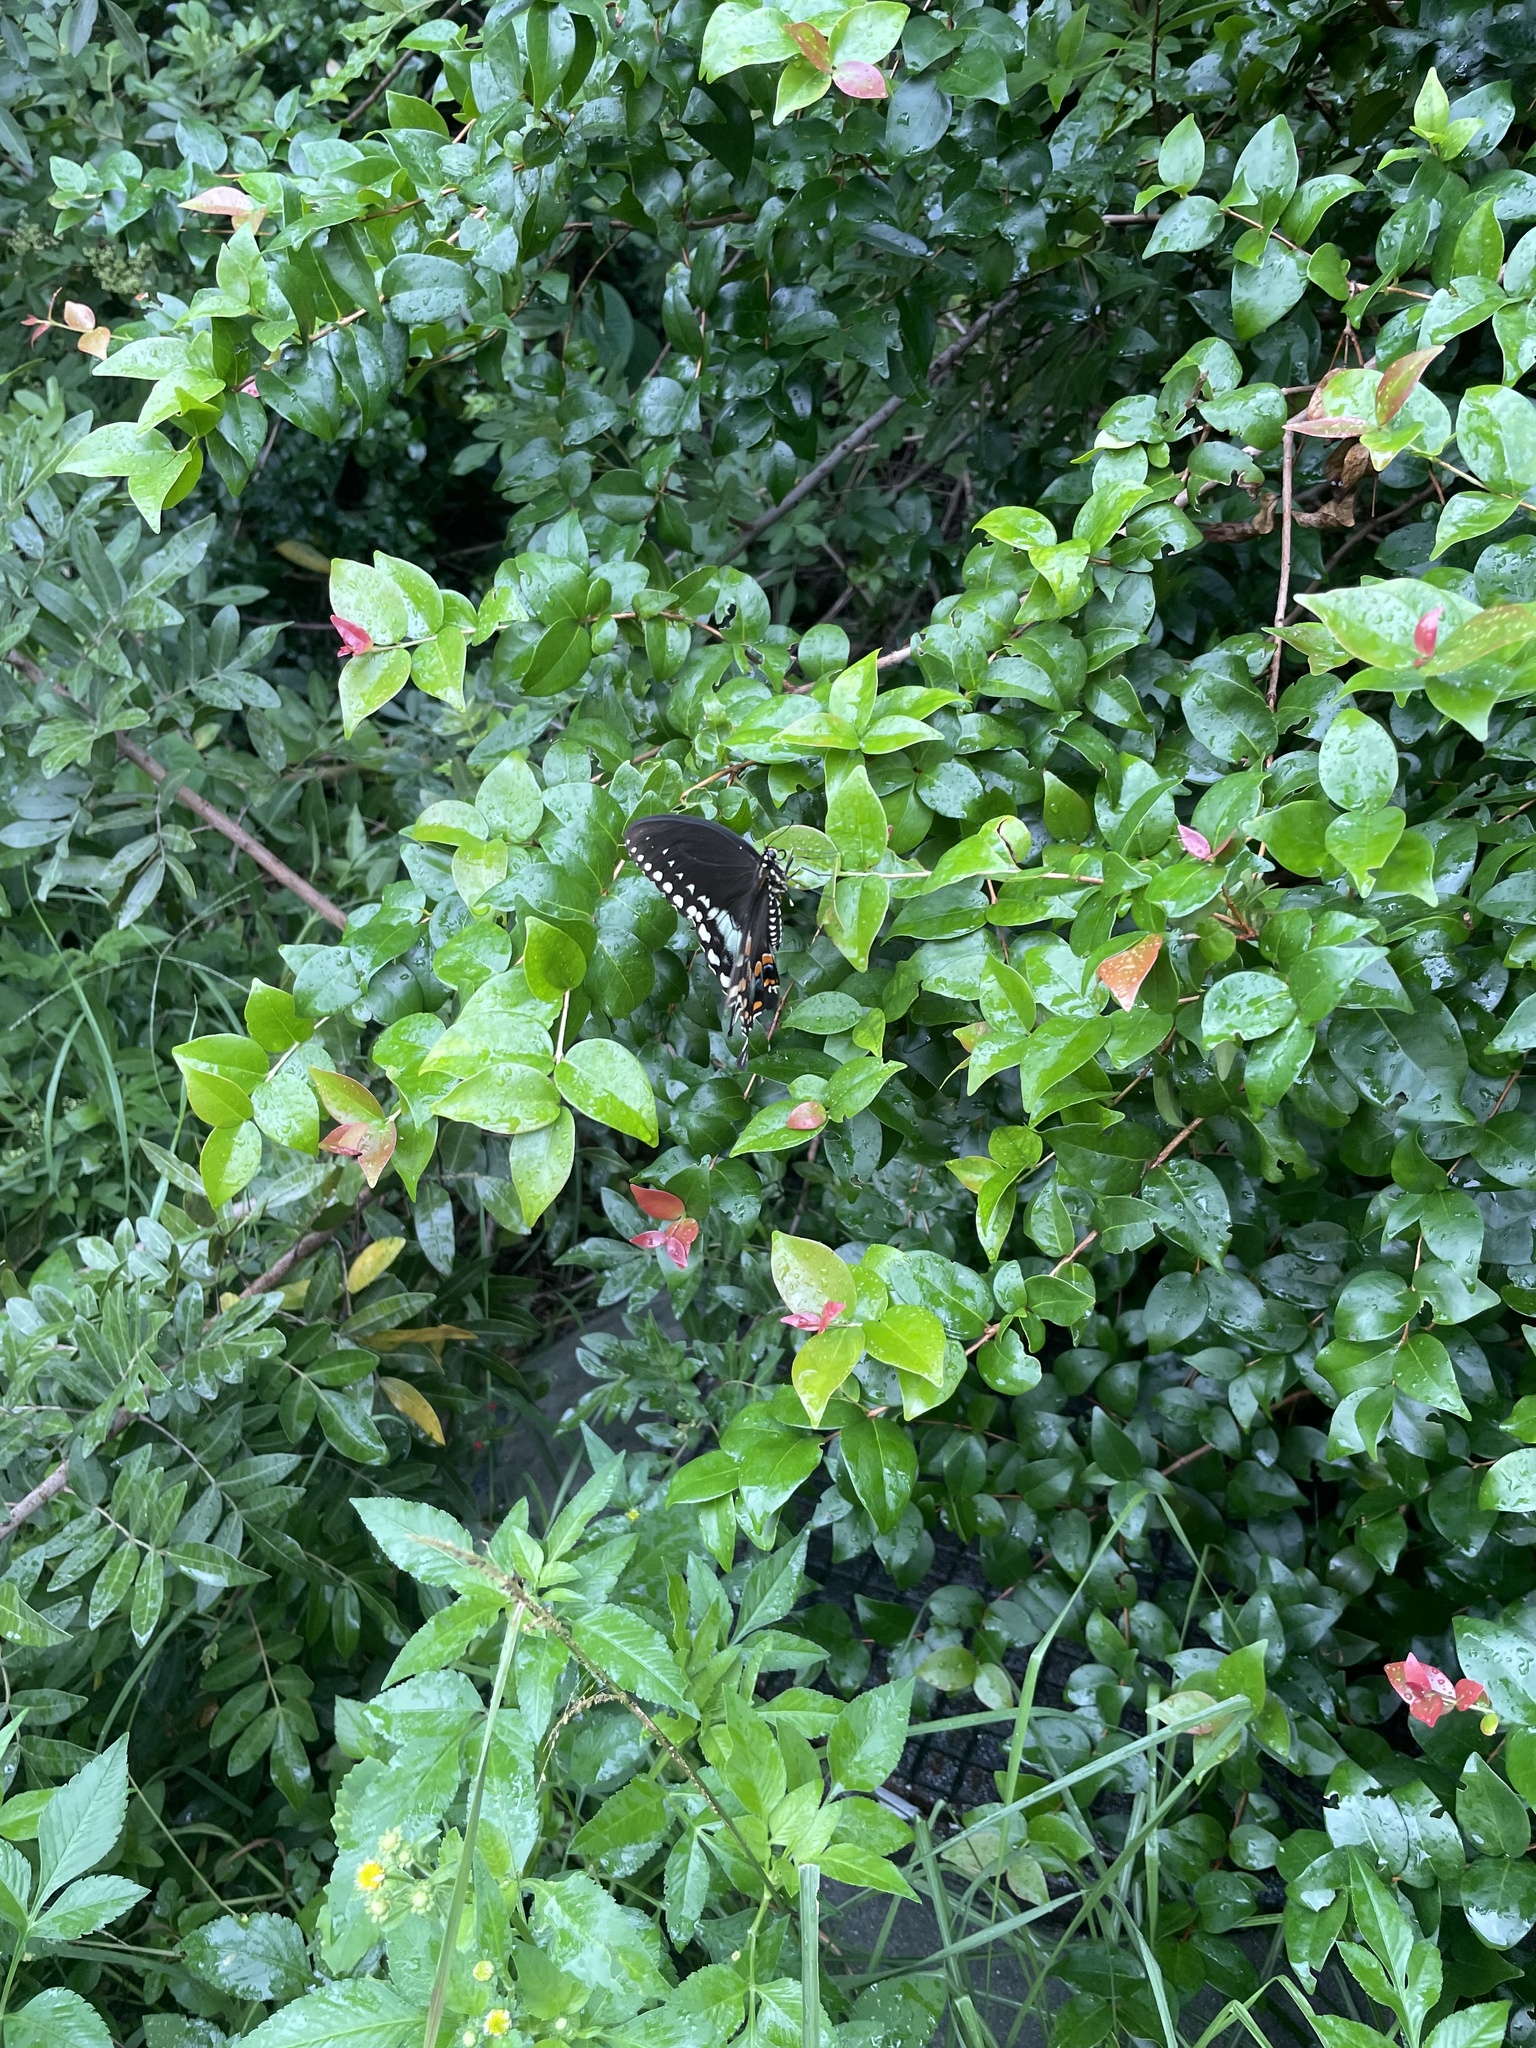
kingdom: Animalia
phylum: Arthropoda
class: Insecta
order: Lepidoptera
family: Papilionidae
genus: Papilio
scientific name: Papilio troilus
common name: Spicebush swallowtail
